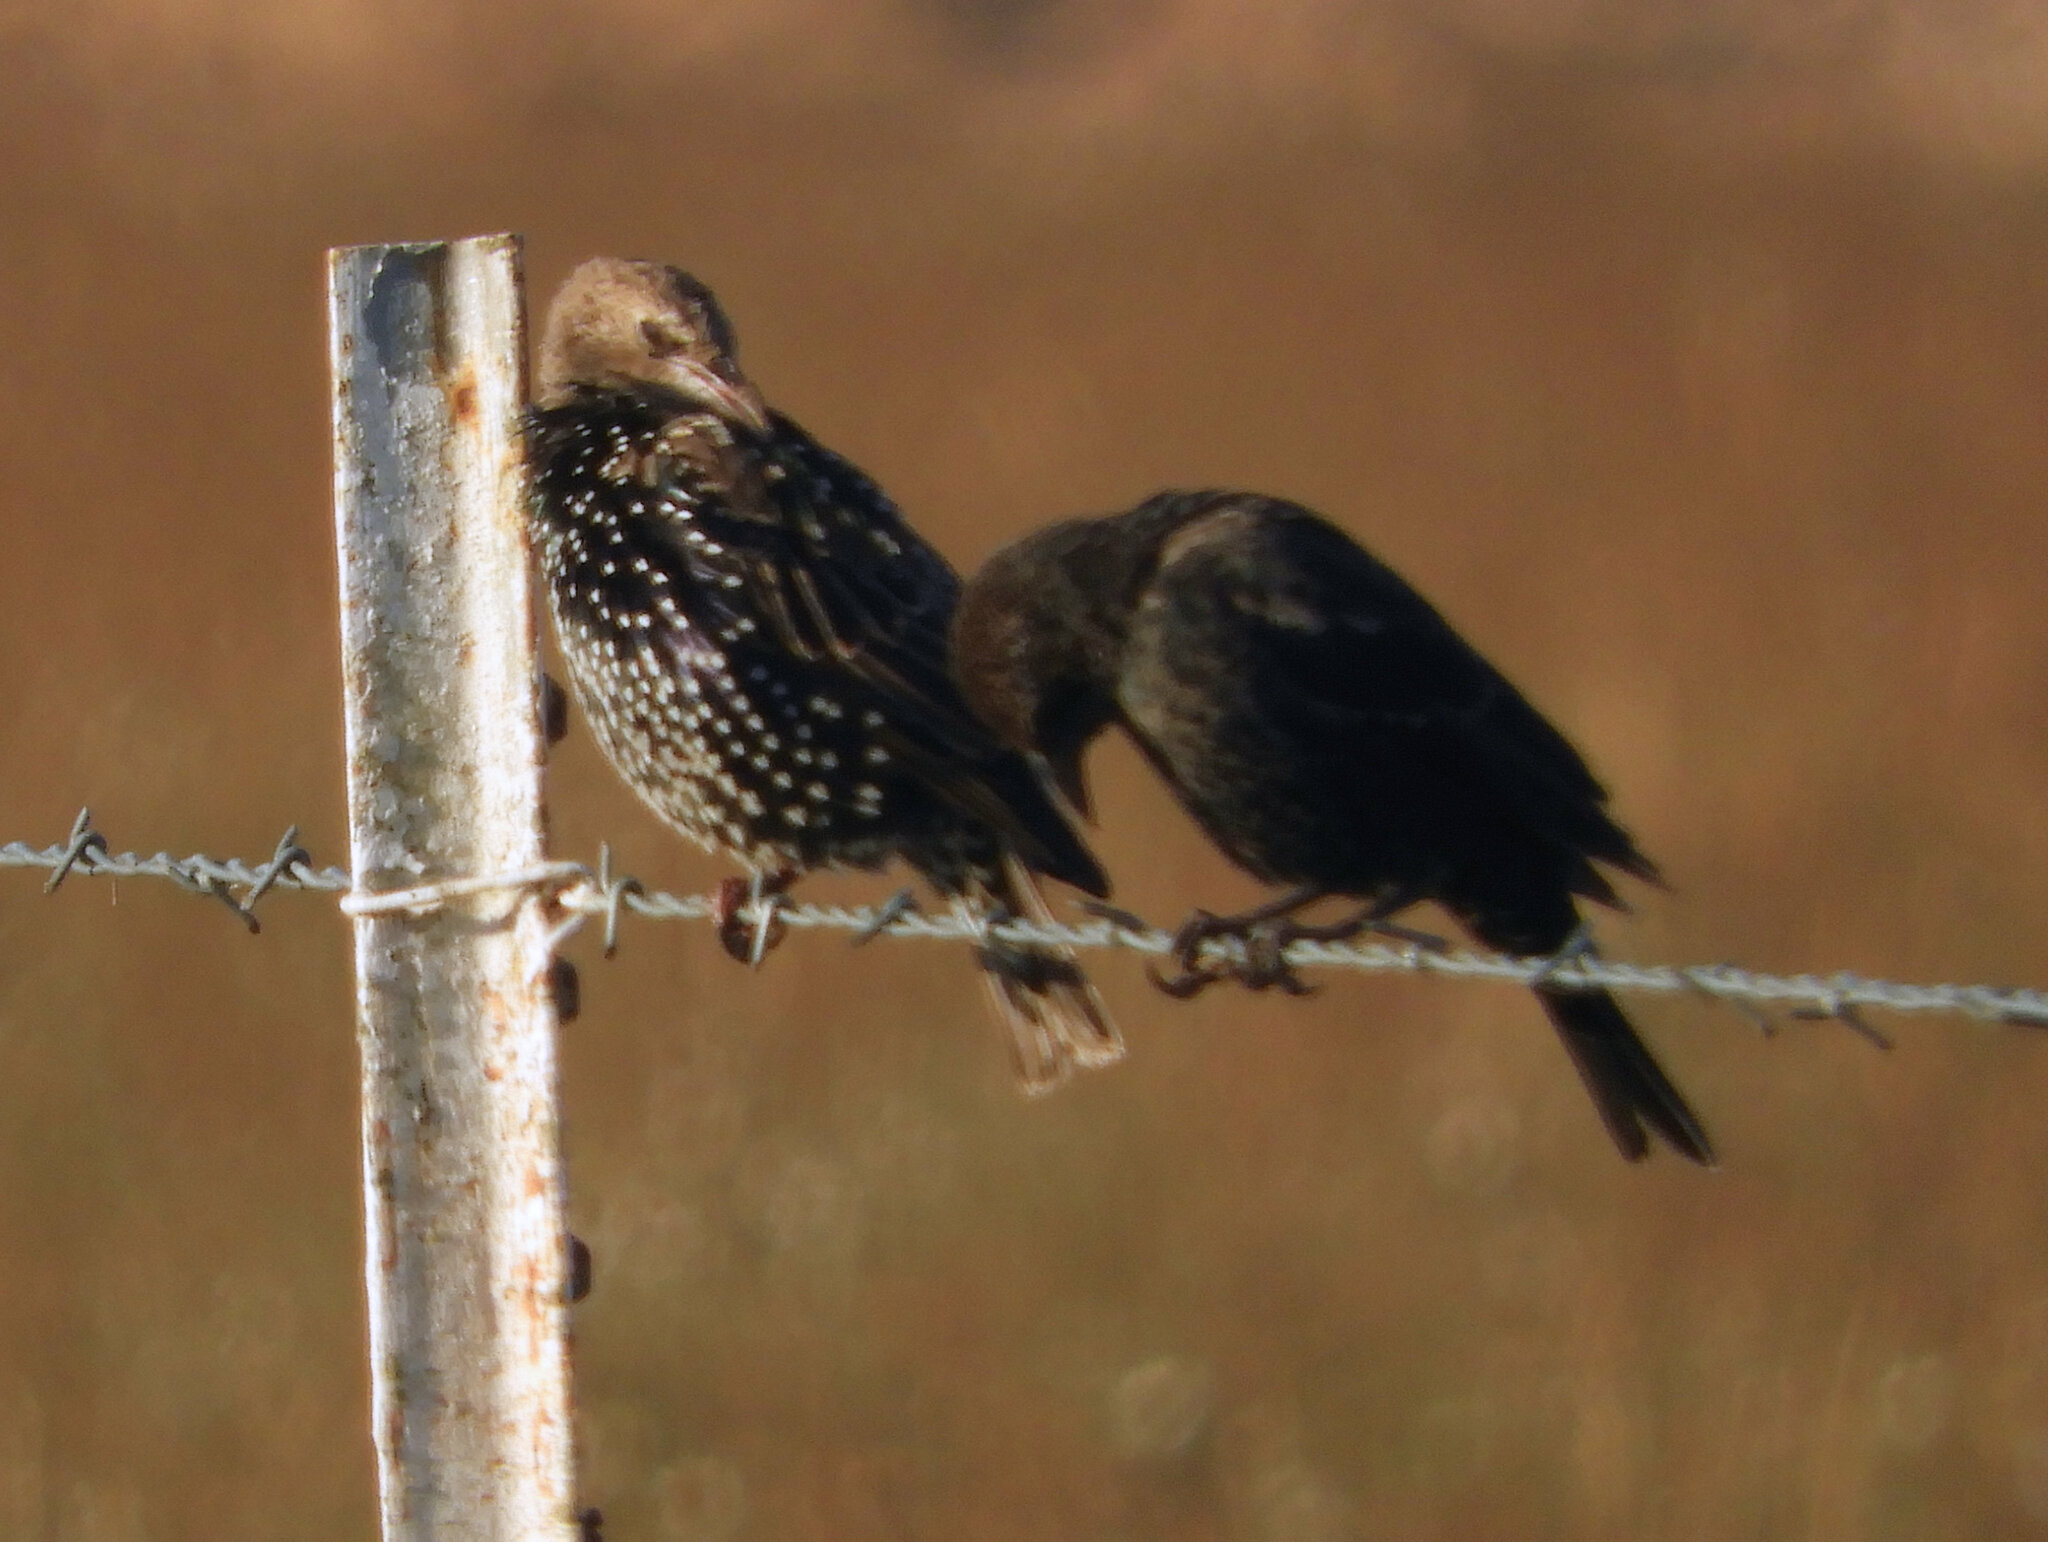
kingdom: Animalia
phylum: Chordata
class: Aves
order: Passeriformes
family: Sturnidae
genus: Sturnus
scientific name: Sturnus vulgaris
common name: Common starling
